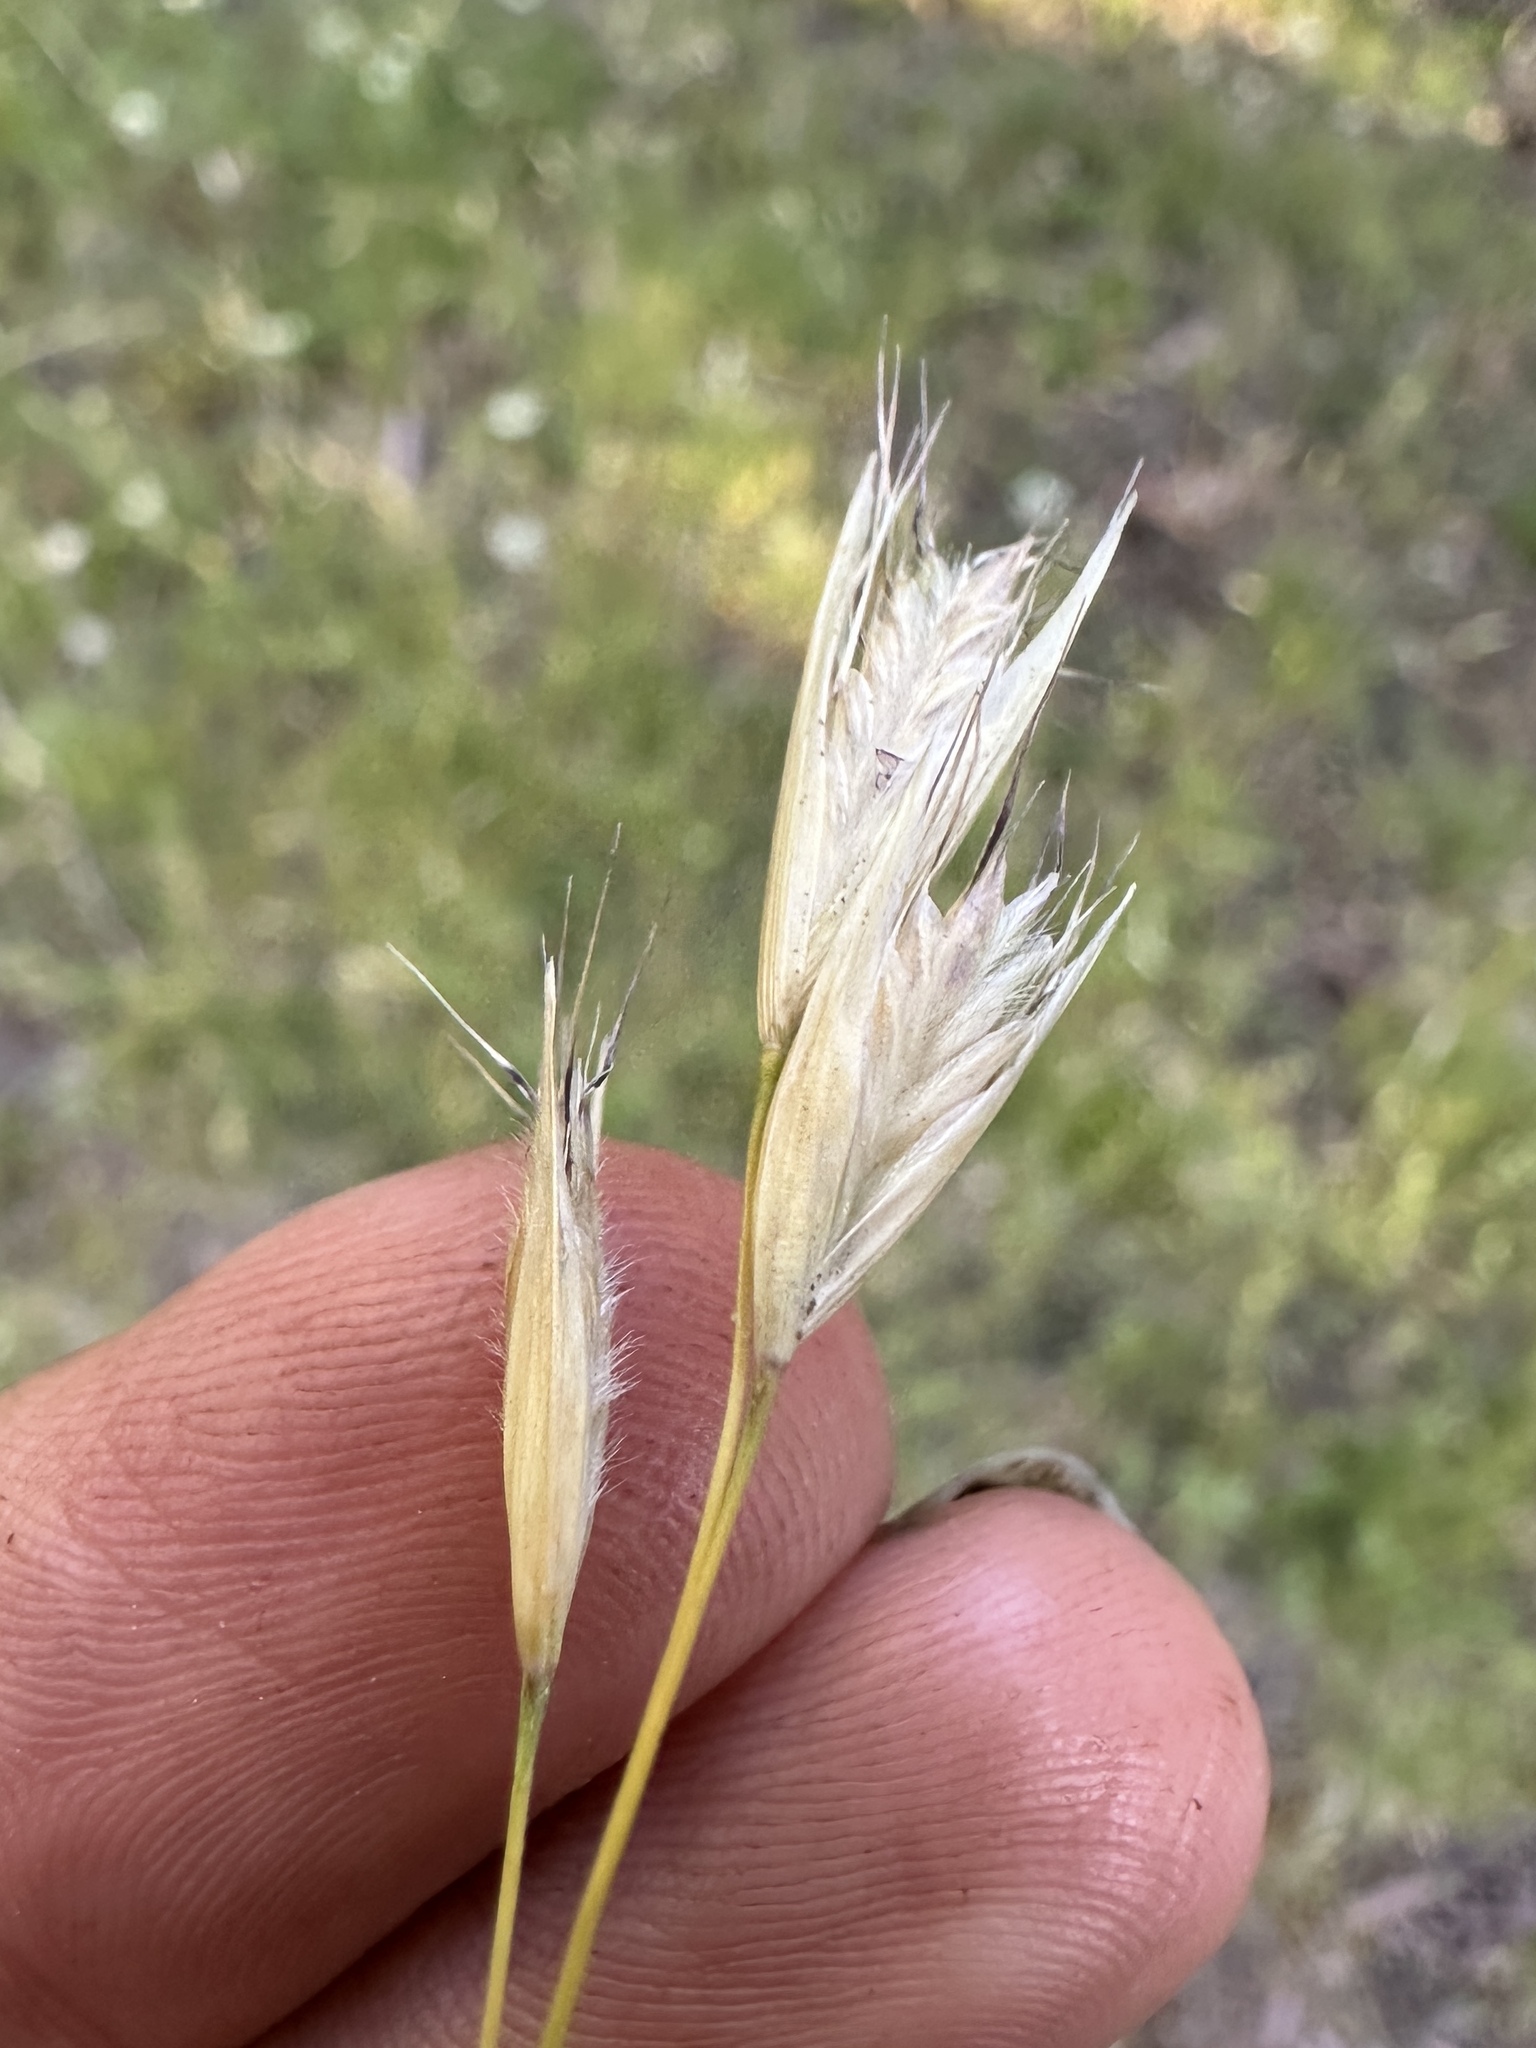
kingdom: Plantae
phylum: Tracheophyta
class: Liliopsida
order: Poales
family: Poaceae
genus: Danthonia
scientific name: Danthonia californica
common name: California oat grass
